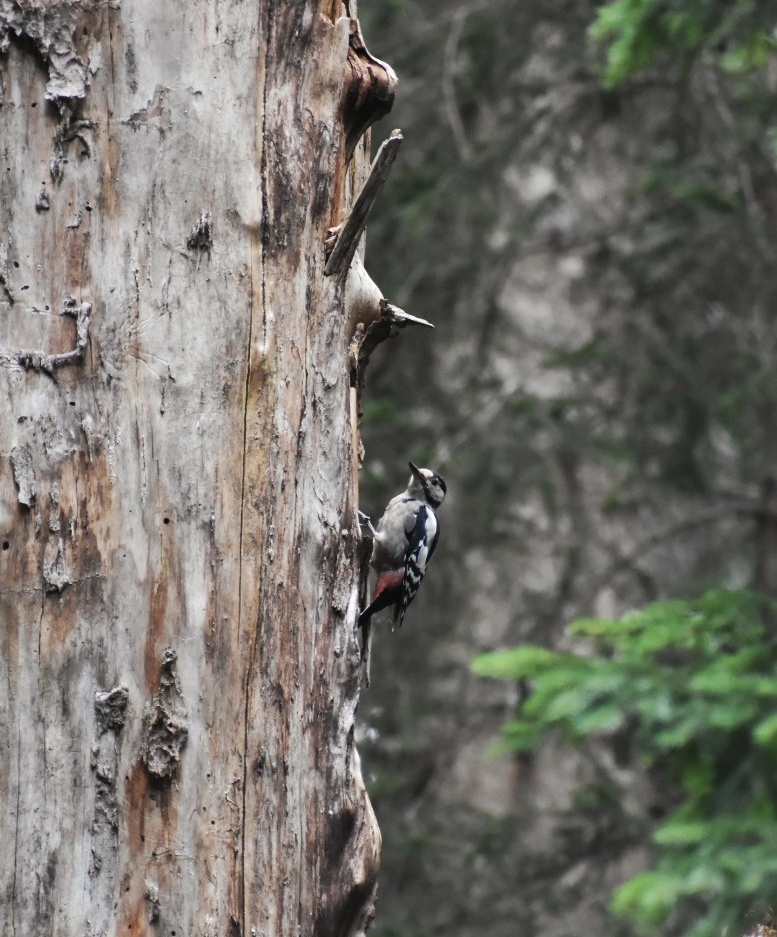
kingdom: Animalia
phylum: Chordata
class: Aves
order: Piciformes
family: Picidae
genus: Dendrocopos
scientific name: Dendrocopos major
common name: Great spotted woodpecker
